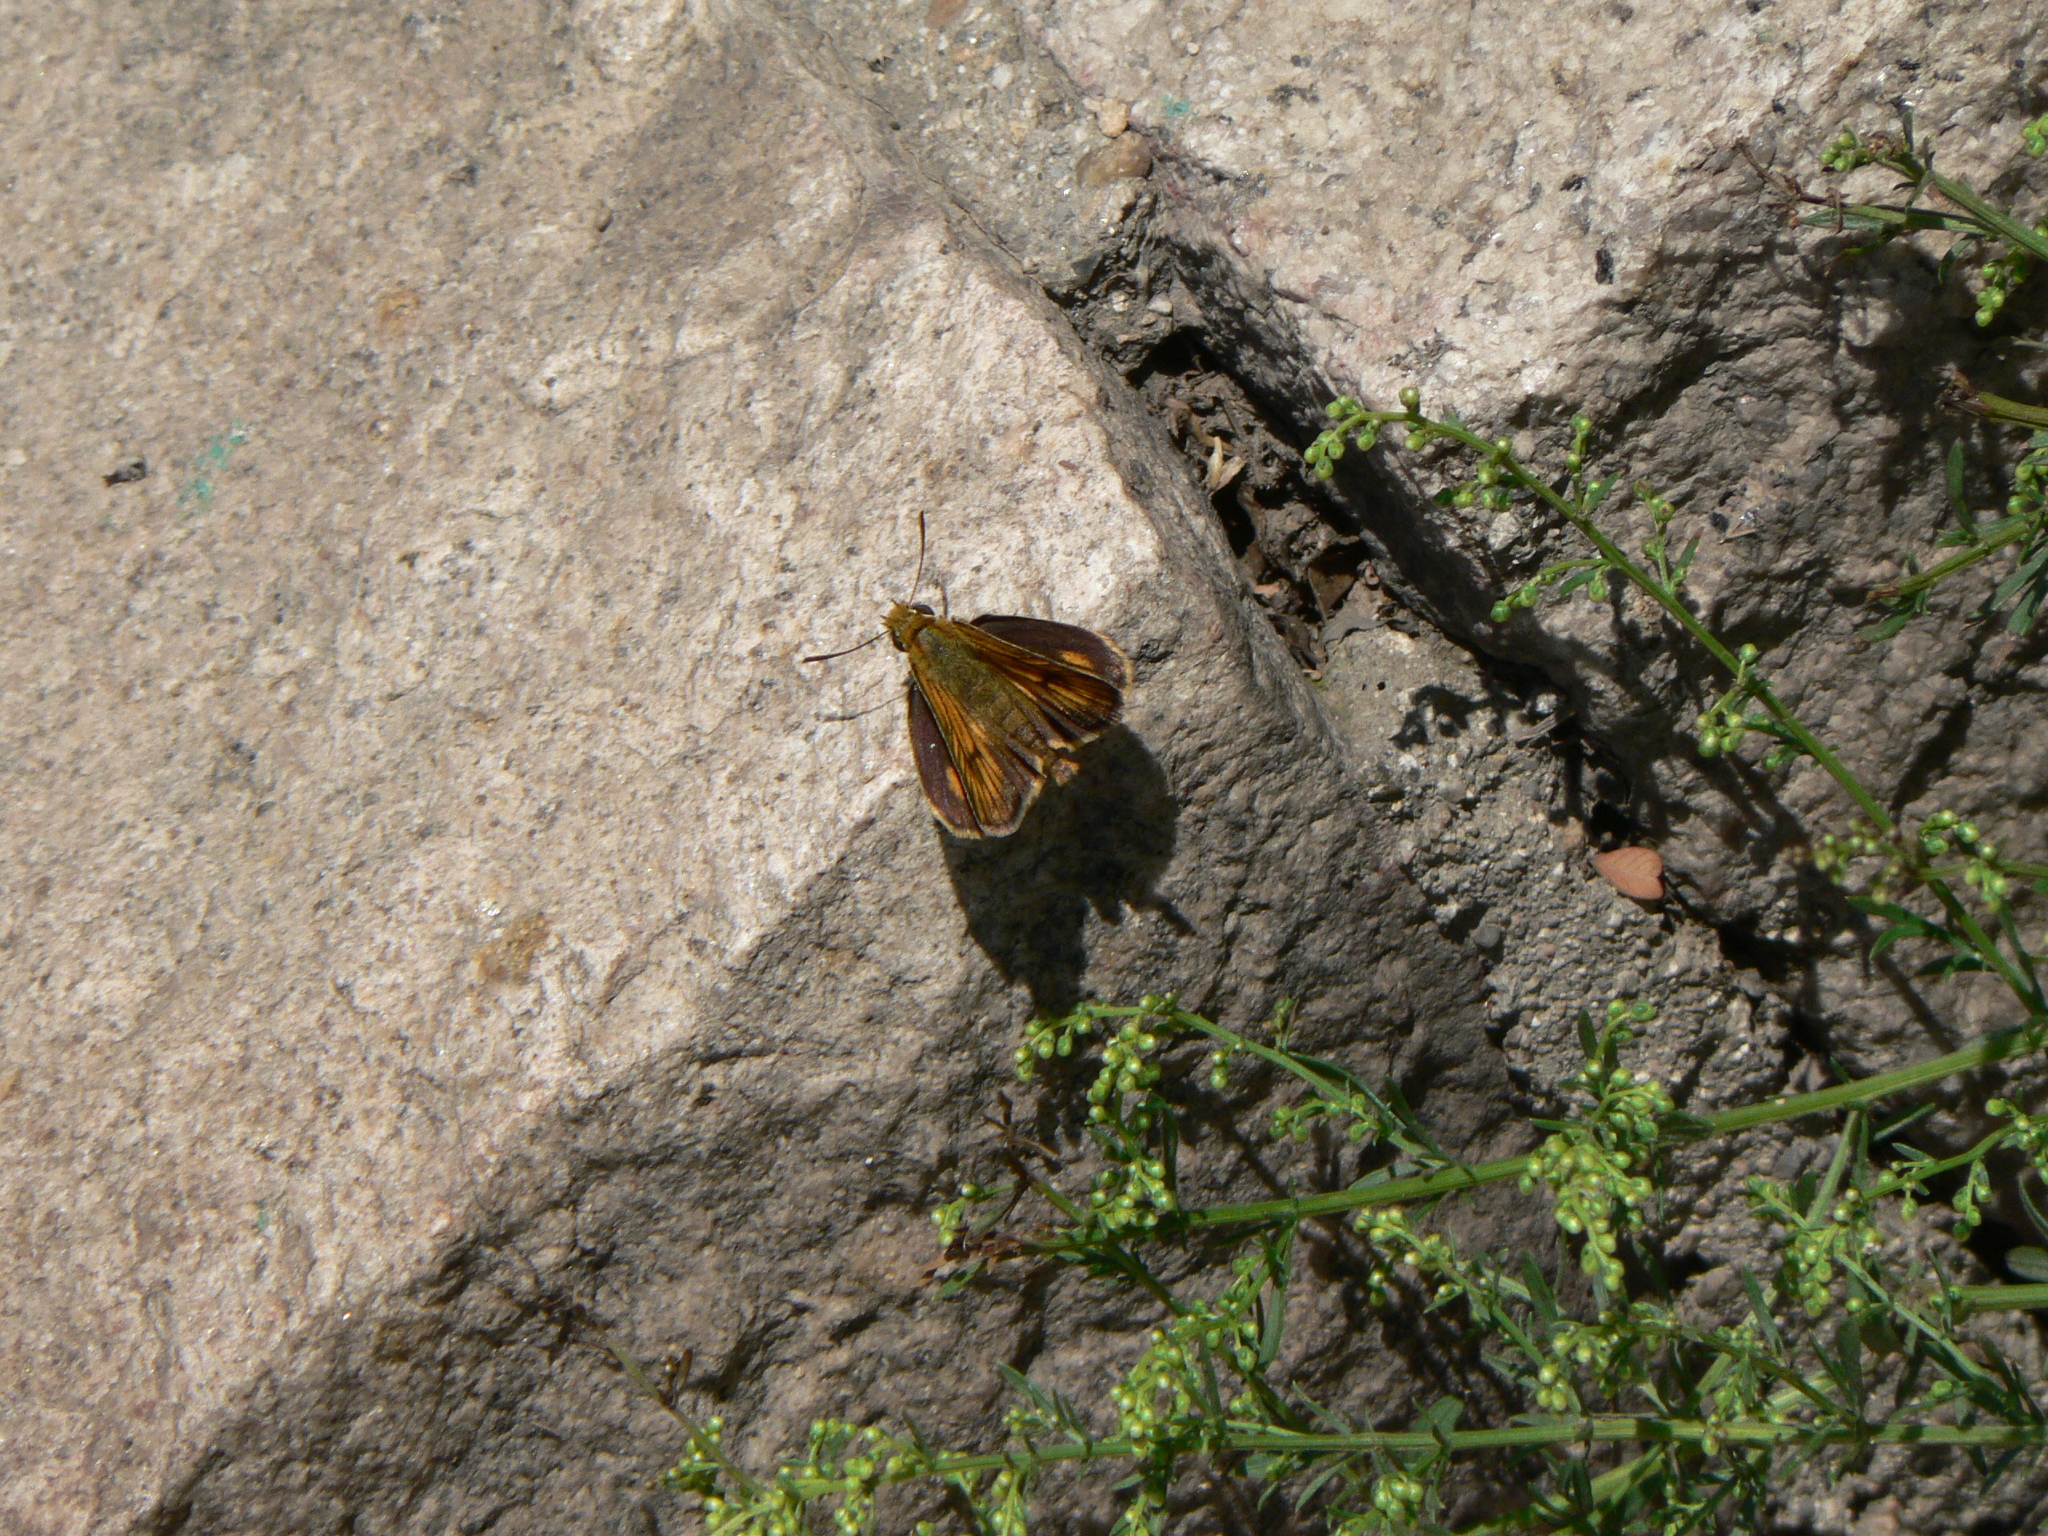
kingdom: Animalia
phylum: Arthropoda
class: Insecta
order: Lepidoptera
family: Hesperiidae
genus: Ochlodes
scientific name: Ochlodes ochracea
